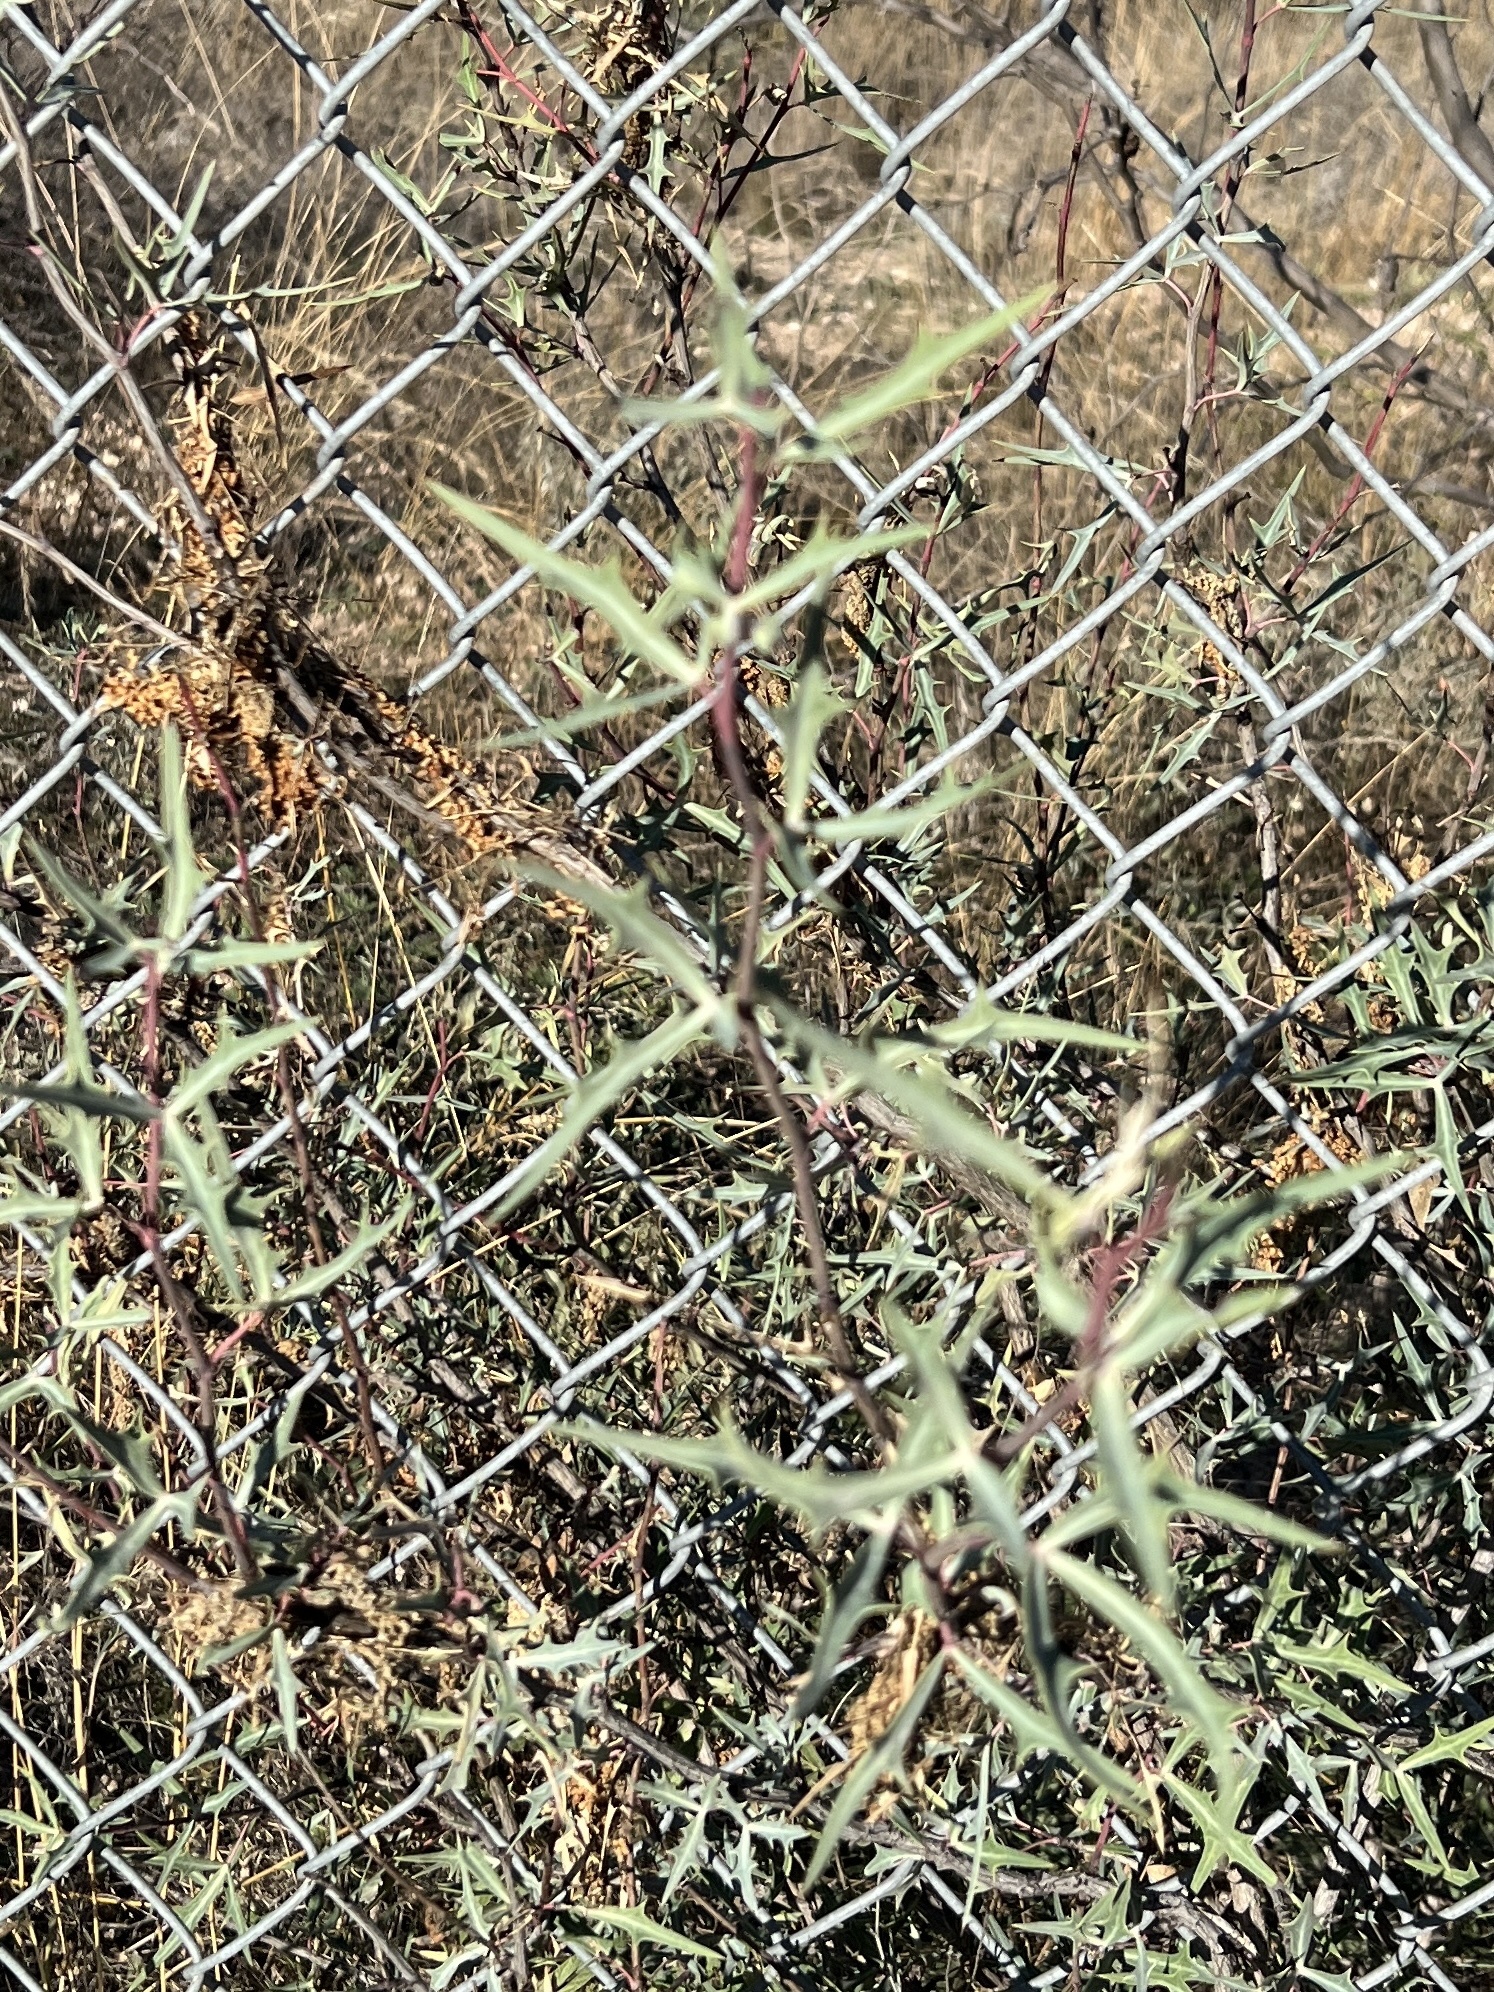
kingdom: Plantae
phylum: Tracheophyta
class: Magnoliopsida
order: Ranunculales
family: Berberidaceae
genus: Alloberberis
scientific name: Alloberberis trifoliolata
